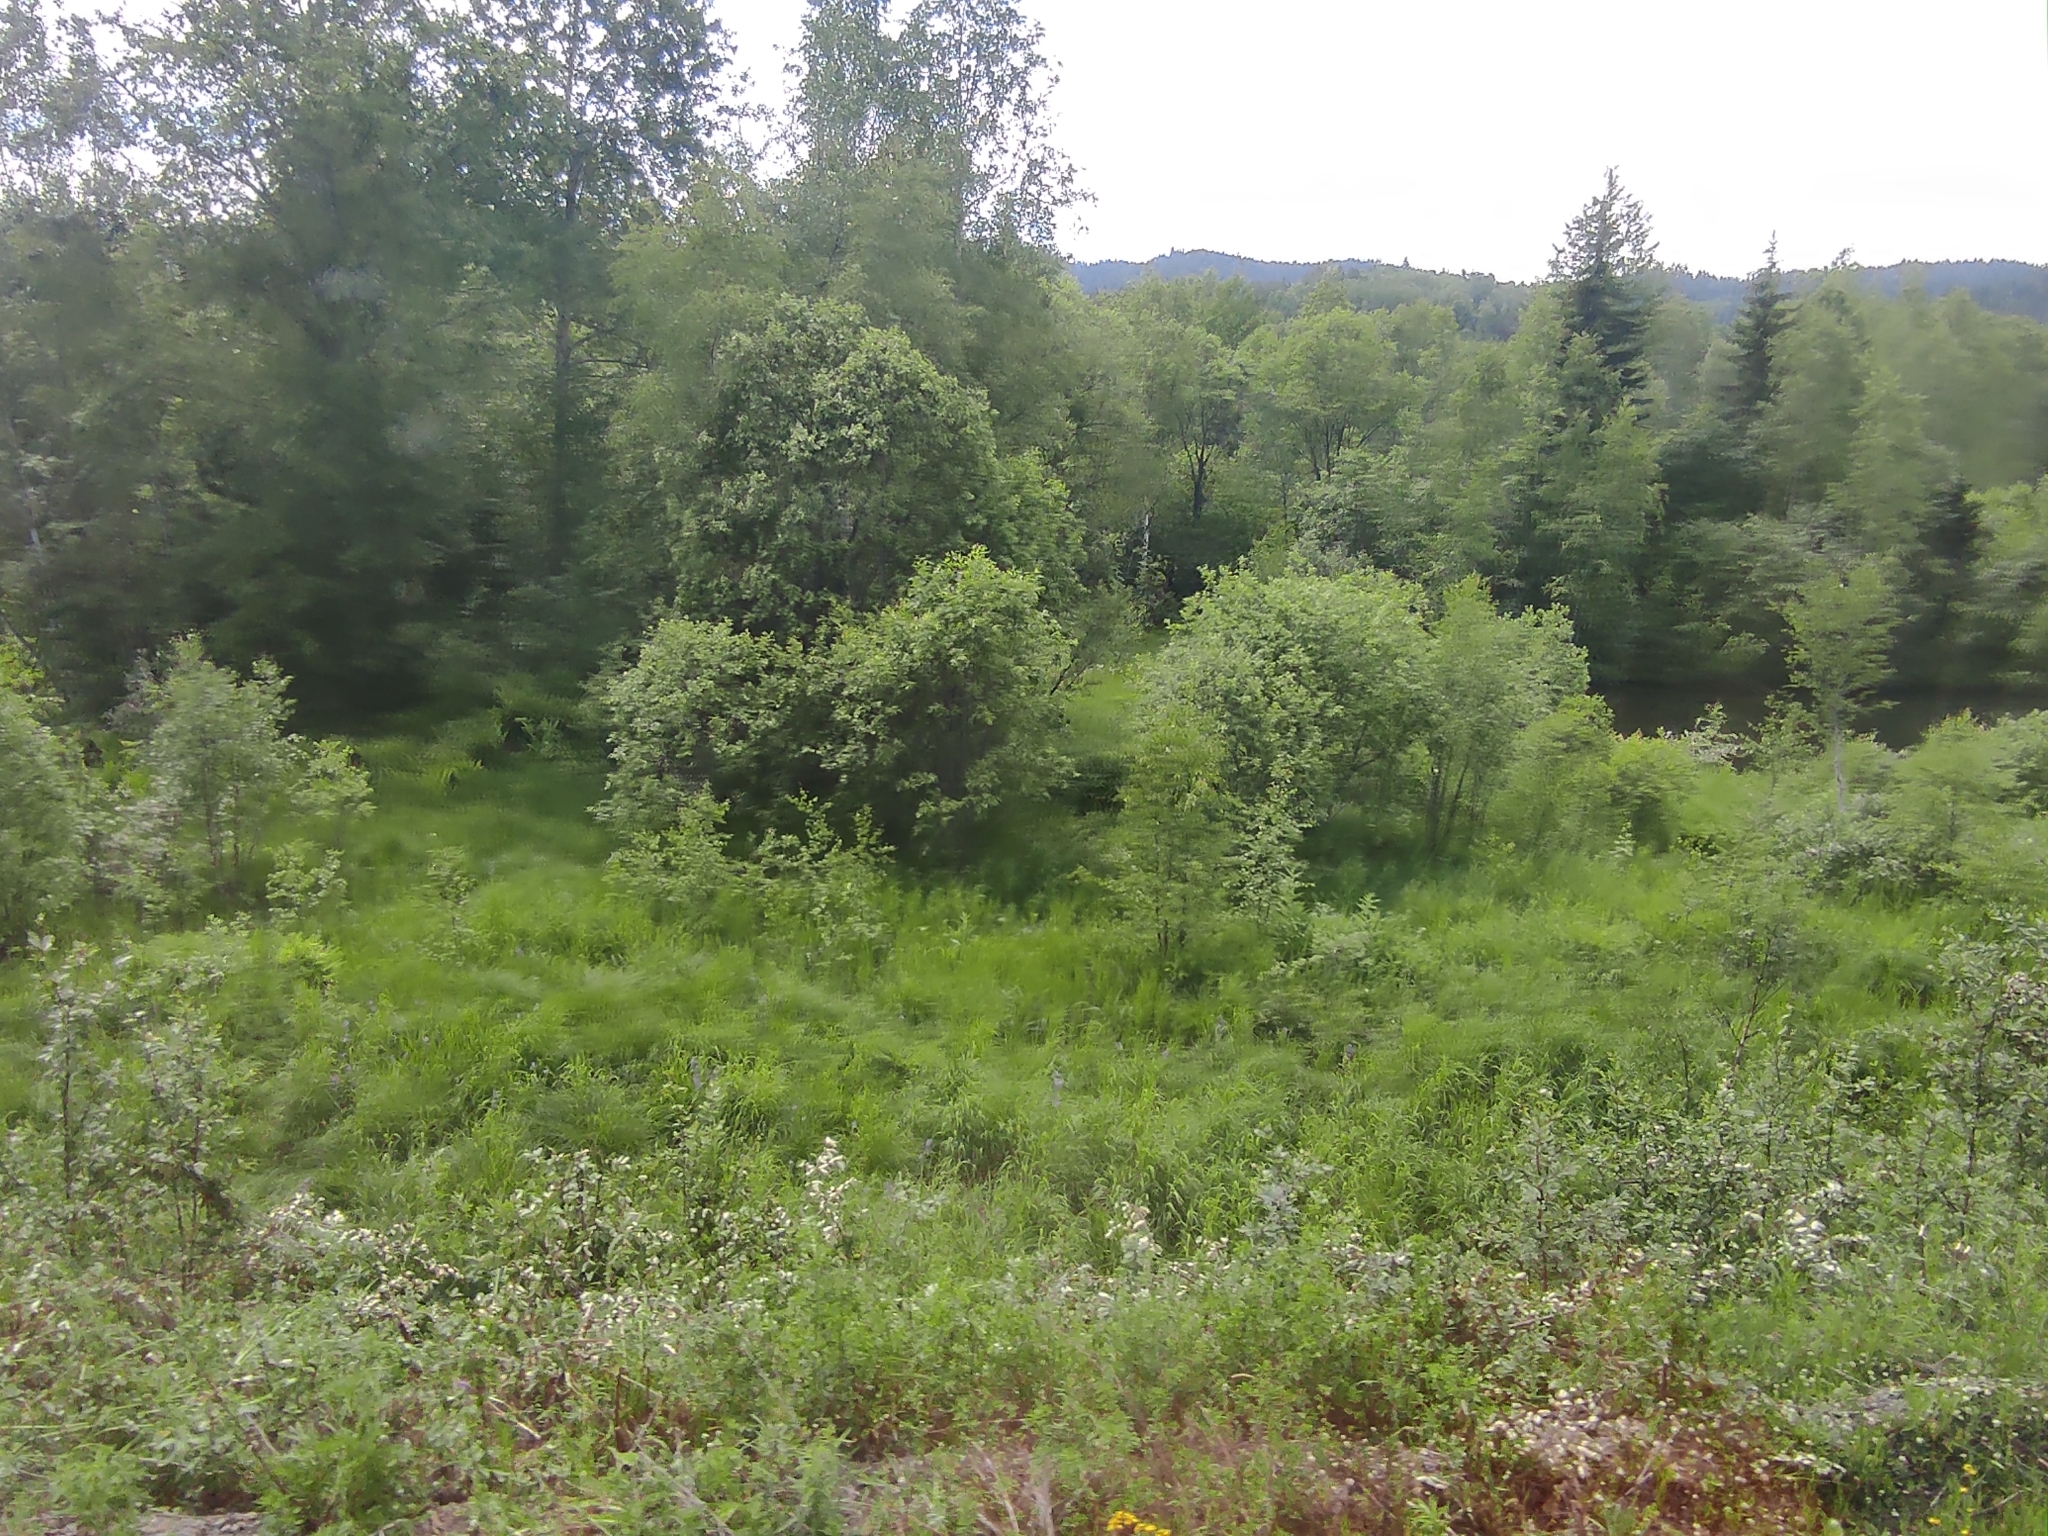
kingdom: Plantae
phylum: Tracheophyta
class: Pinopsida
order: Pinales
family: Pinaceae
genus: Picea
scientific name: Picea obovata
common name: Siberian spruce
